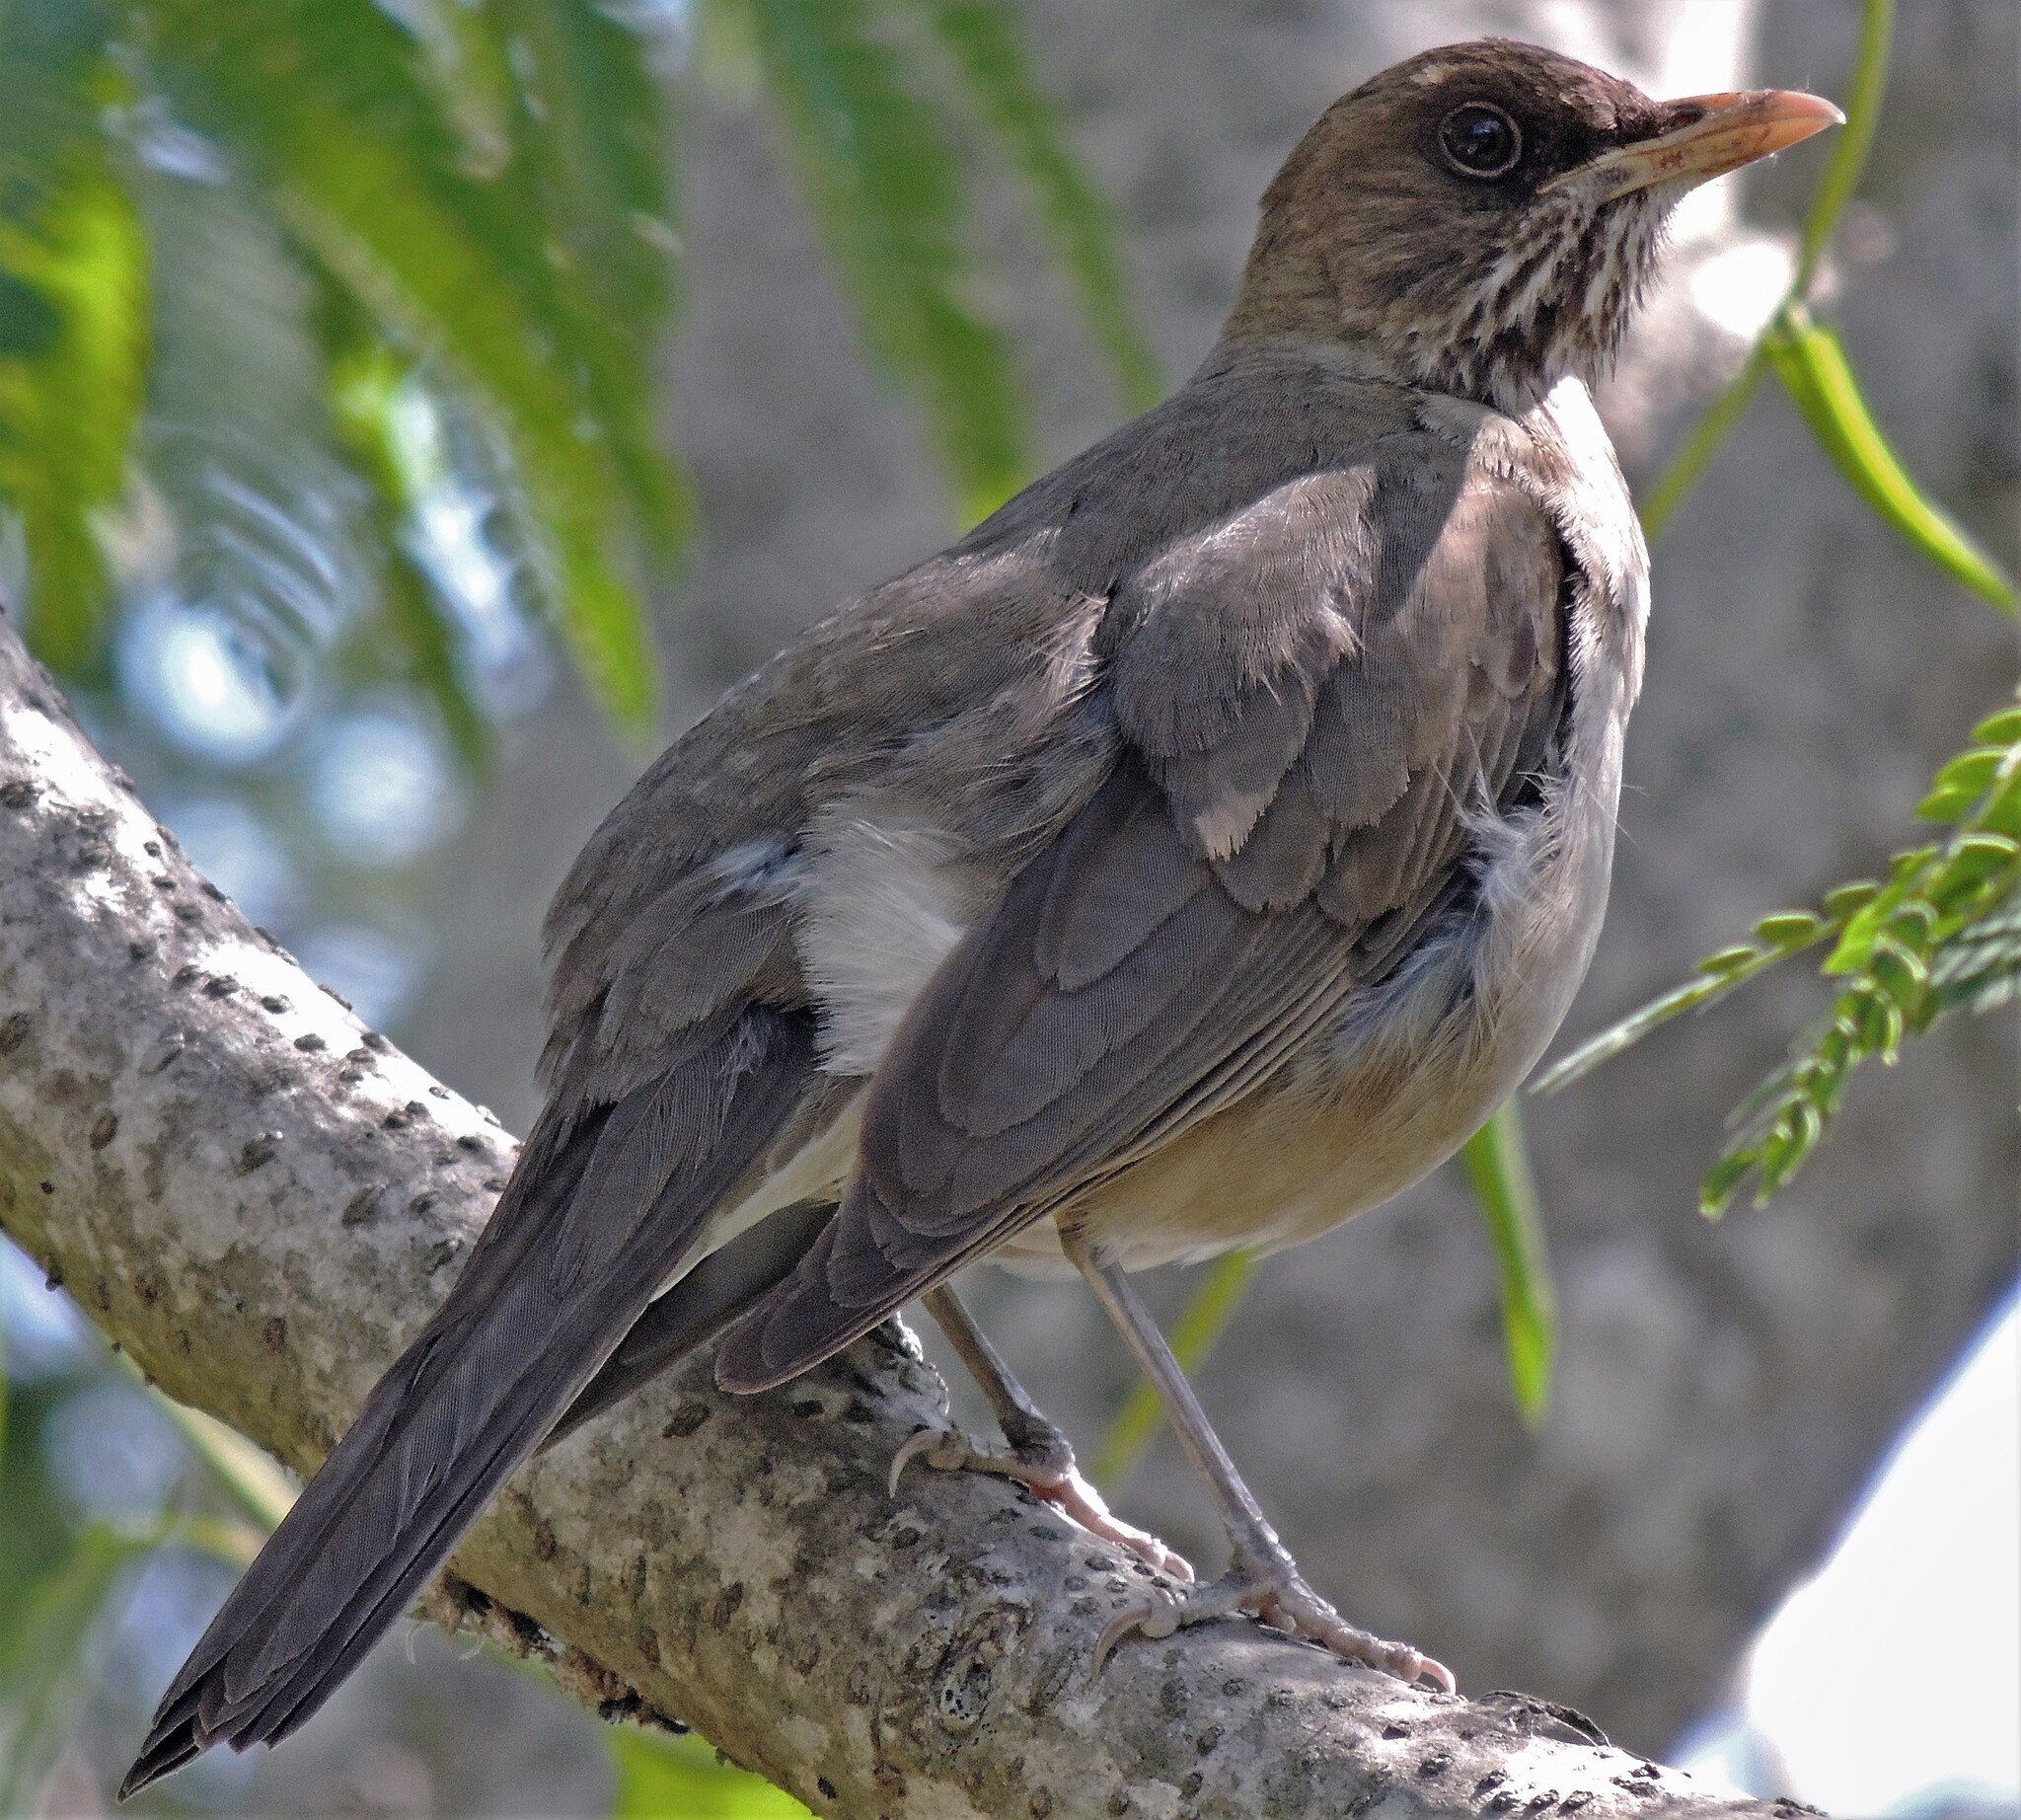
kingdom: Animalia
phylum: Chordata
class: Aves
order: Passeriformes
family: Turdidae
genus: Turdus
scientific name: Turdus amaurochalinus
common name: Creamy-bellied thrush
